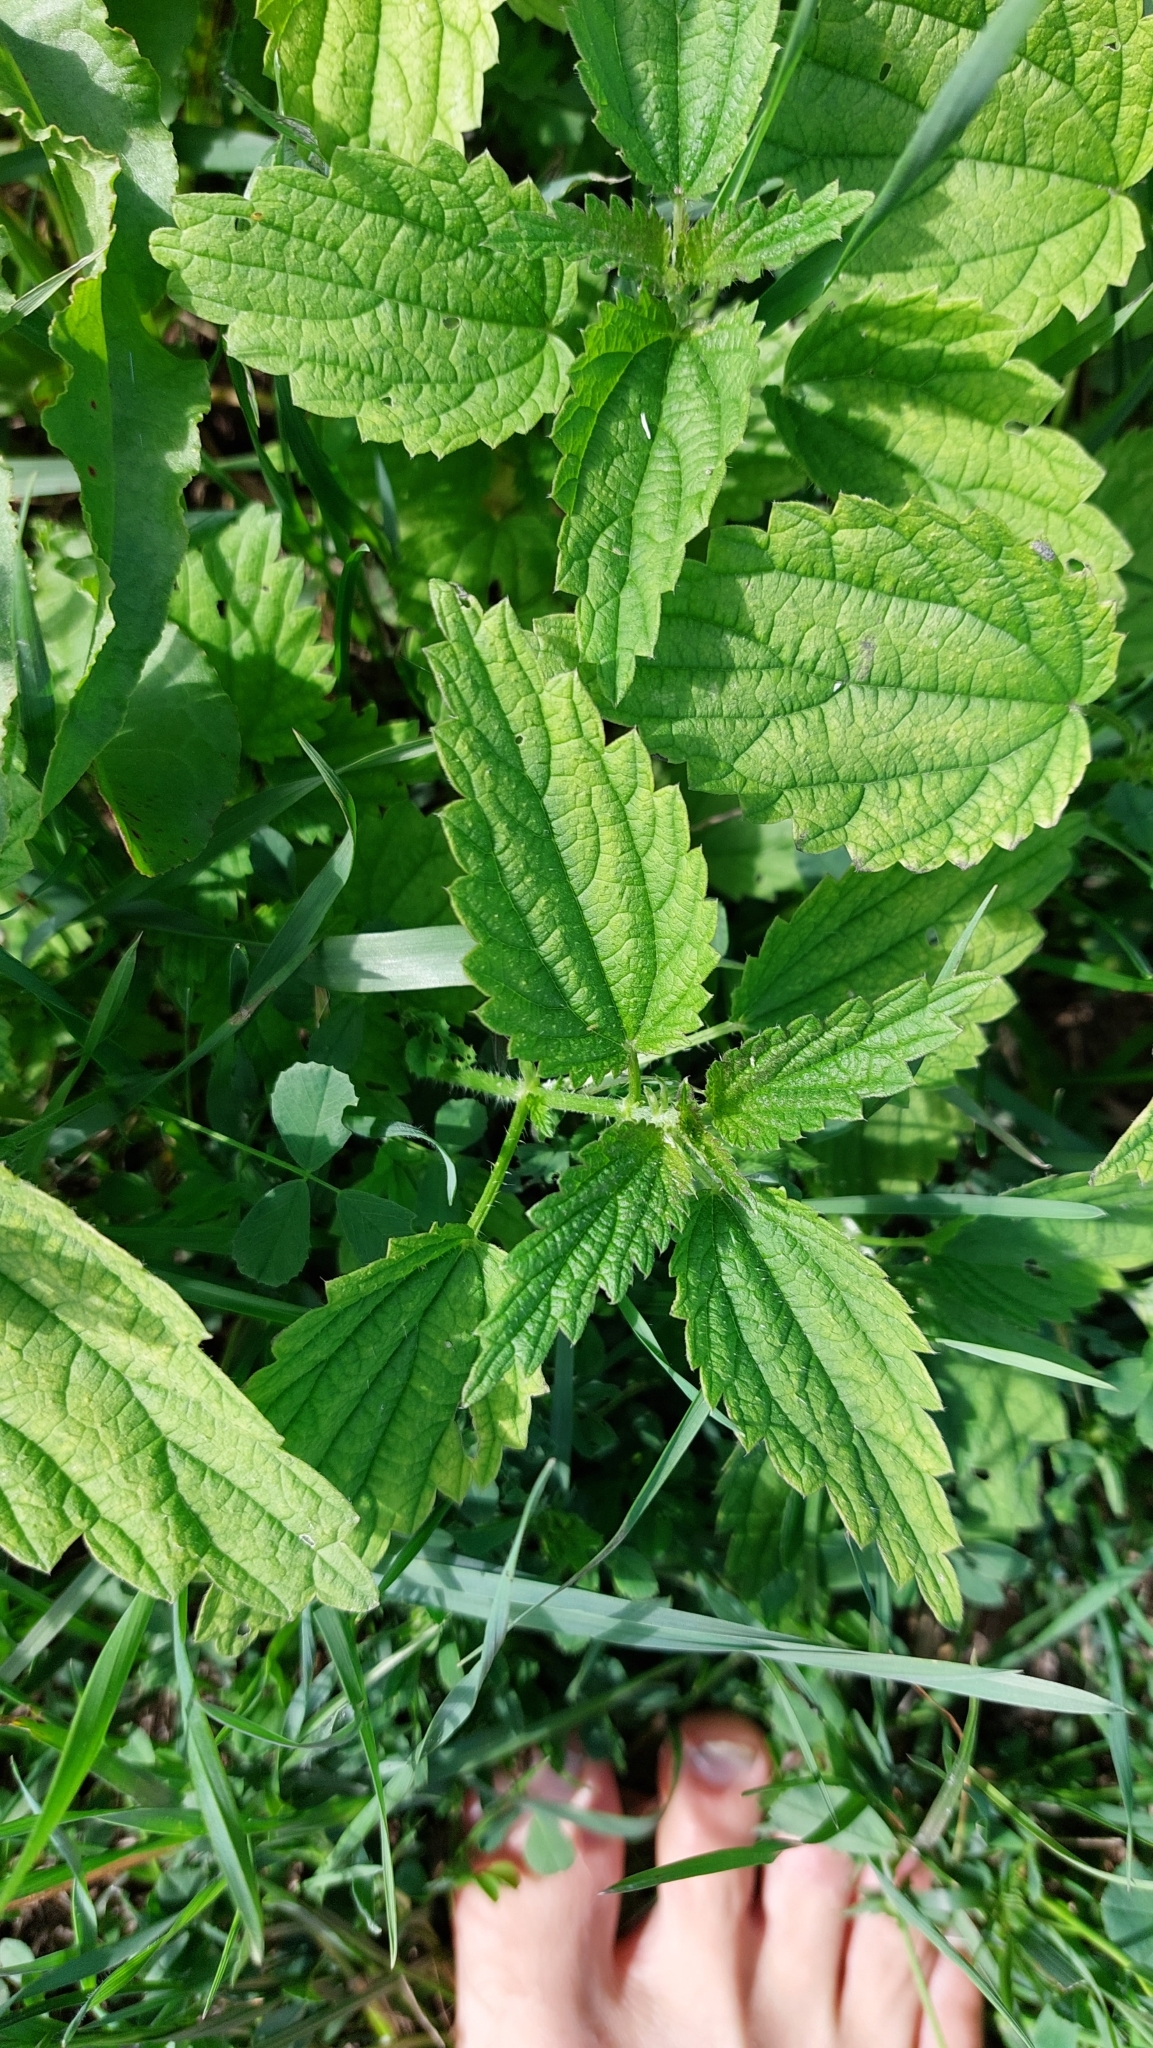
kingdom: Plantae
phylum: Tracheophyta
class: Magnoliopsida
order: Rosales
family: Urticaceae
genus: Urtica
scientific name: Urtica dioica
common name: Common nettle
